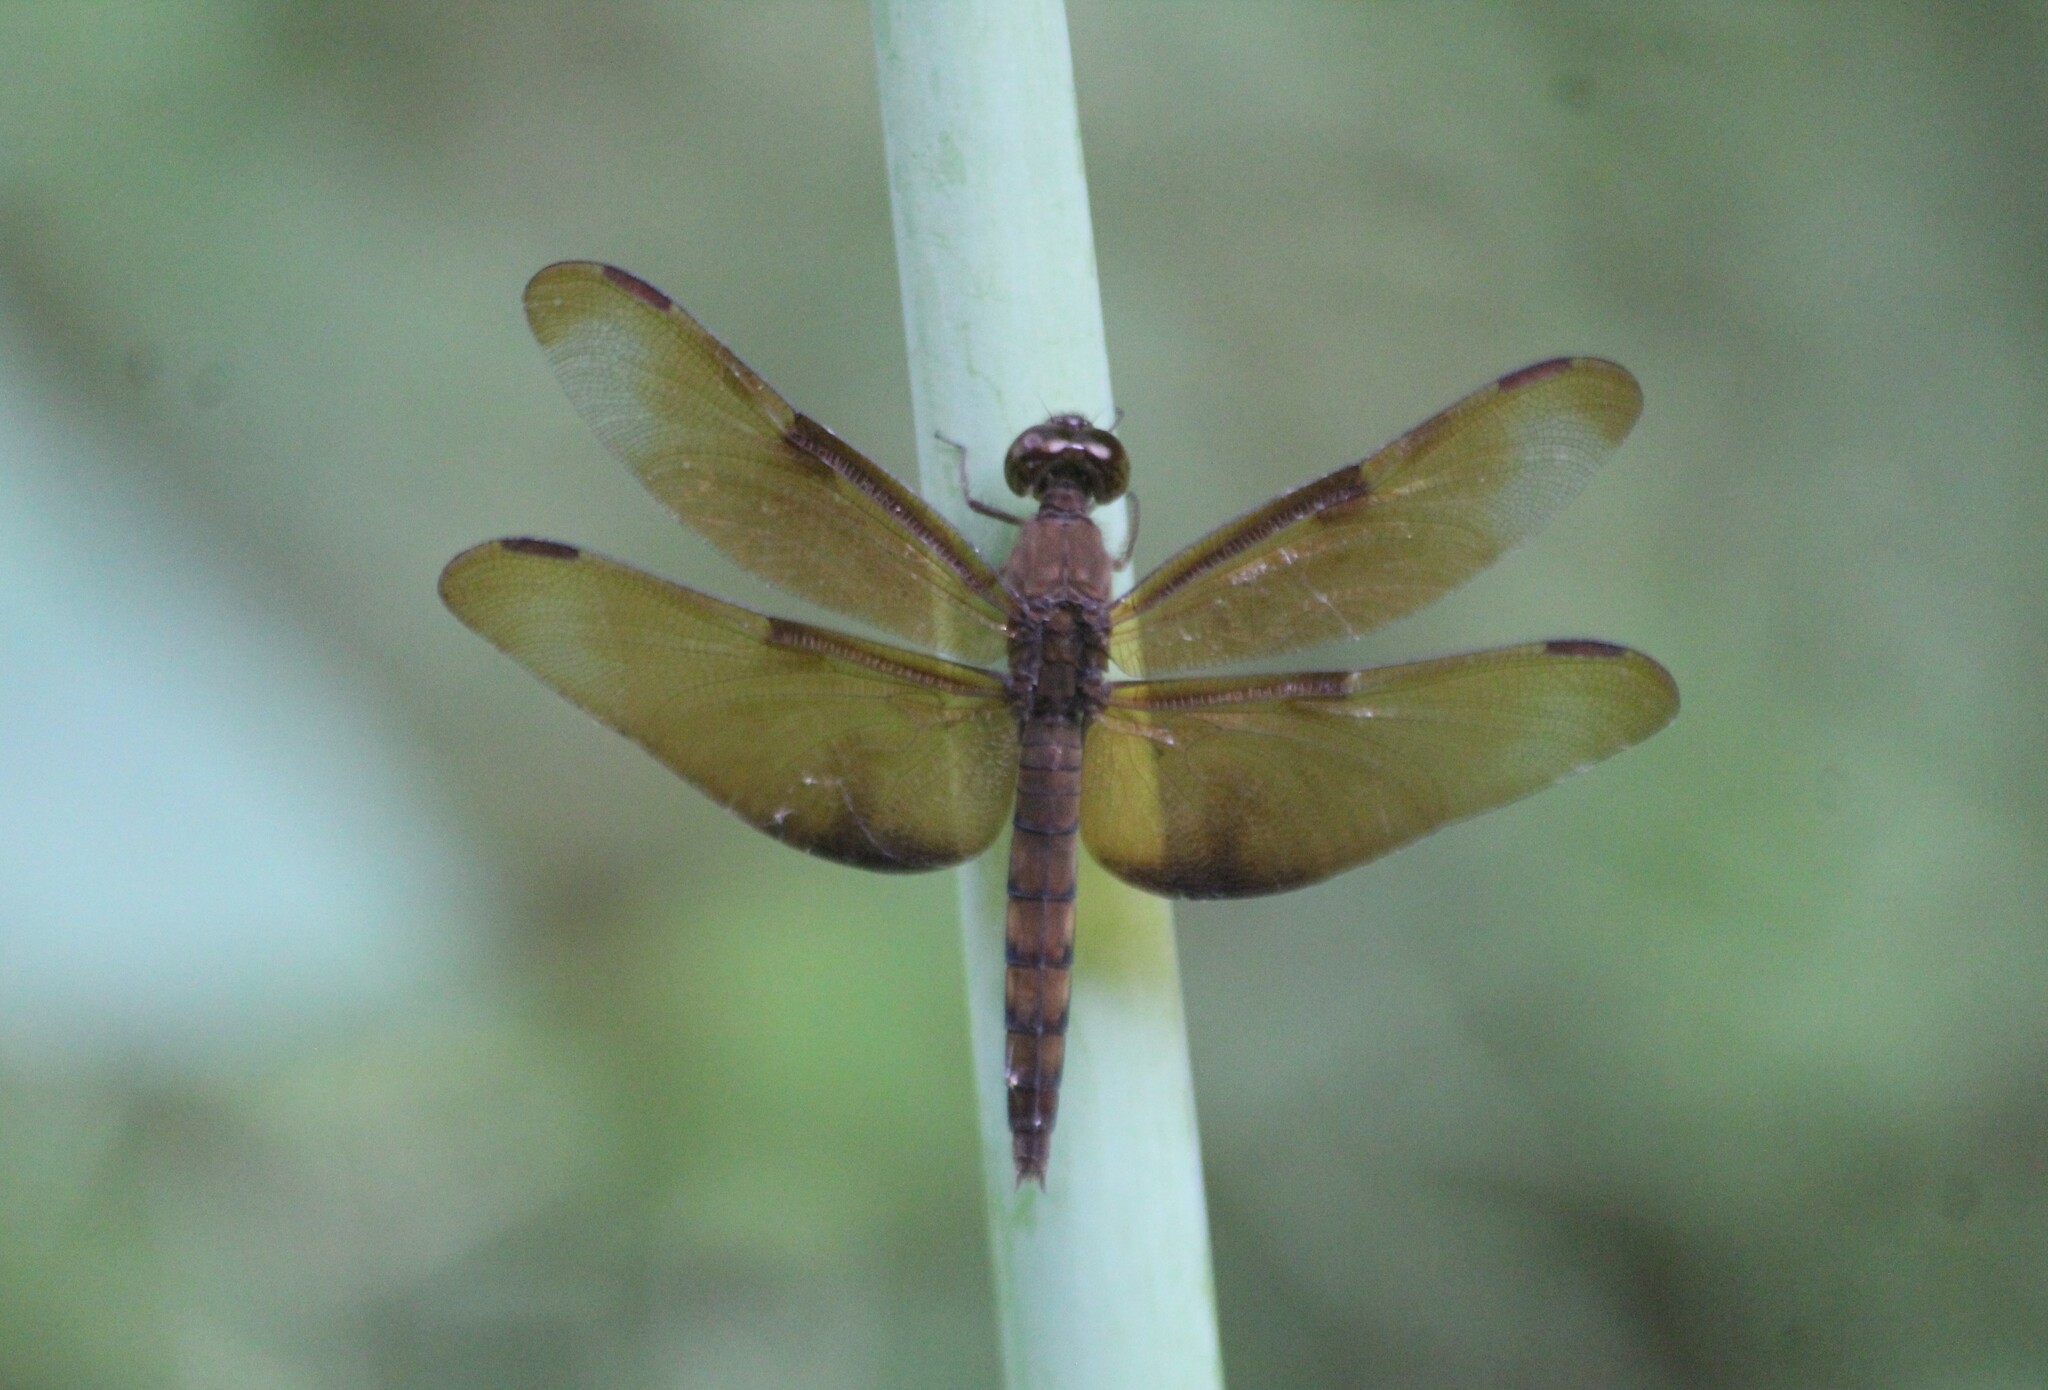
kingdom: Animalia
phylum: Arthropoda
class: Insecta
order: Odonata
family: Libellulidae
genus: Neurothemis
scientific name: Neurothemis fulvia
